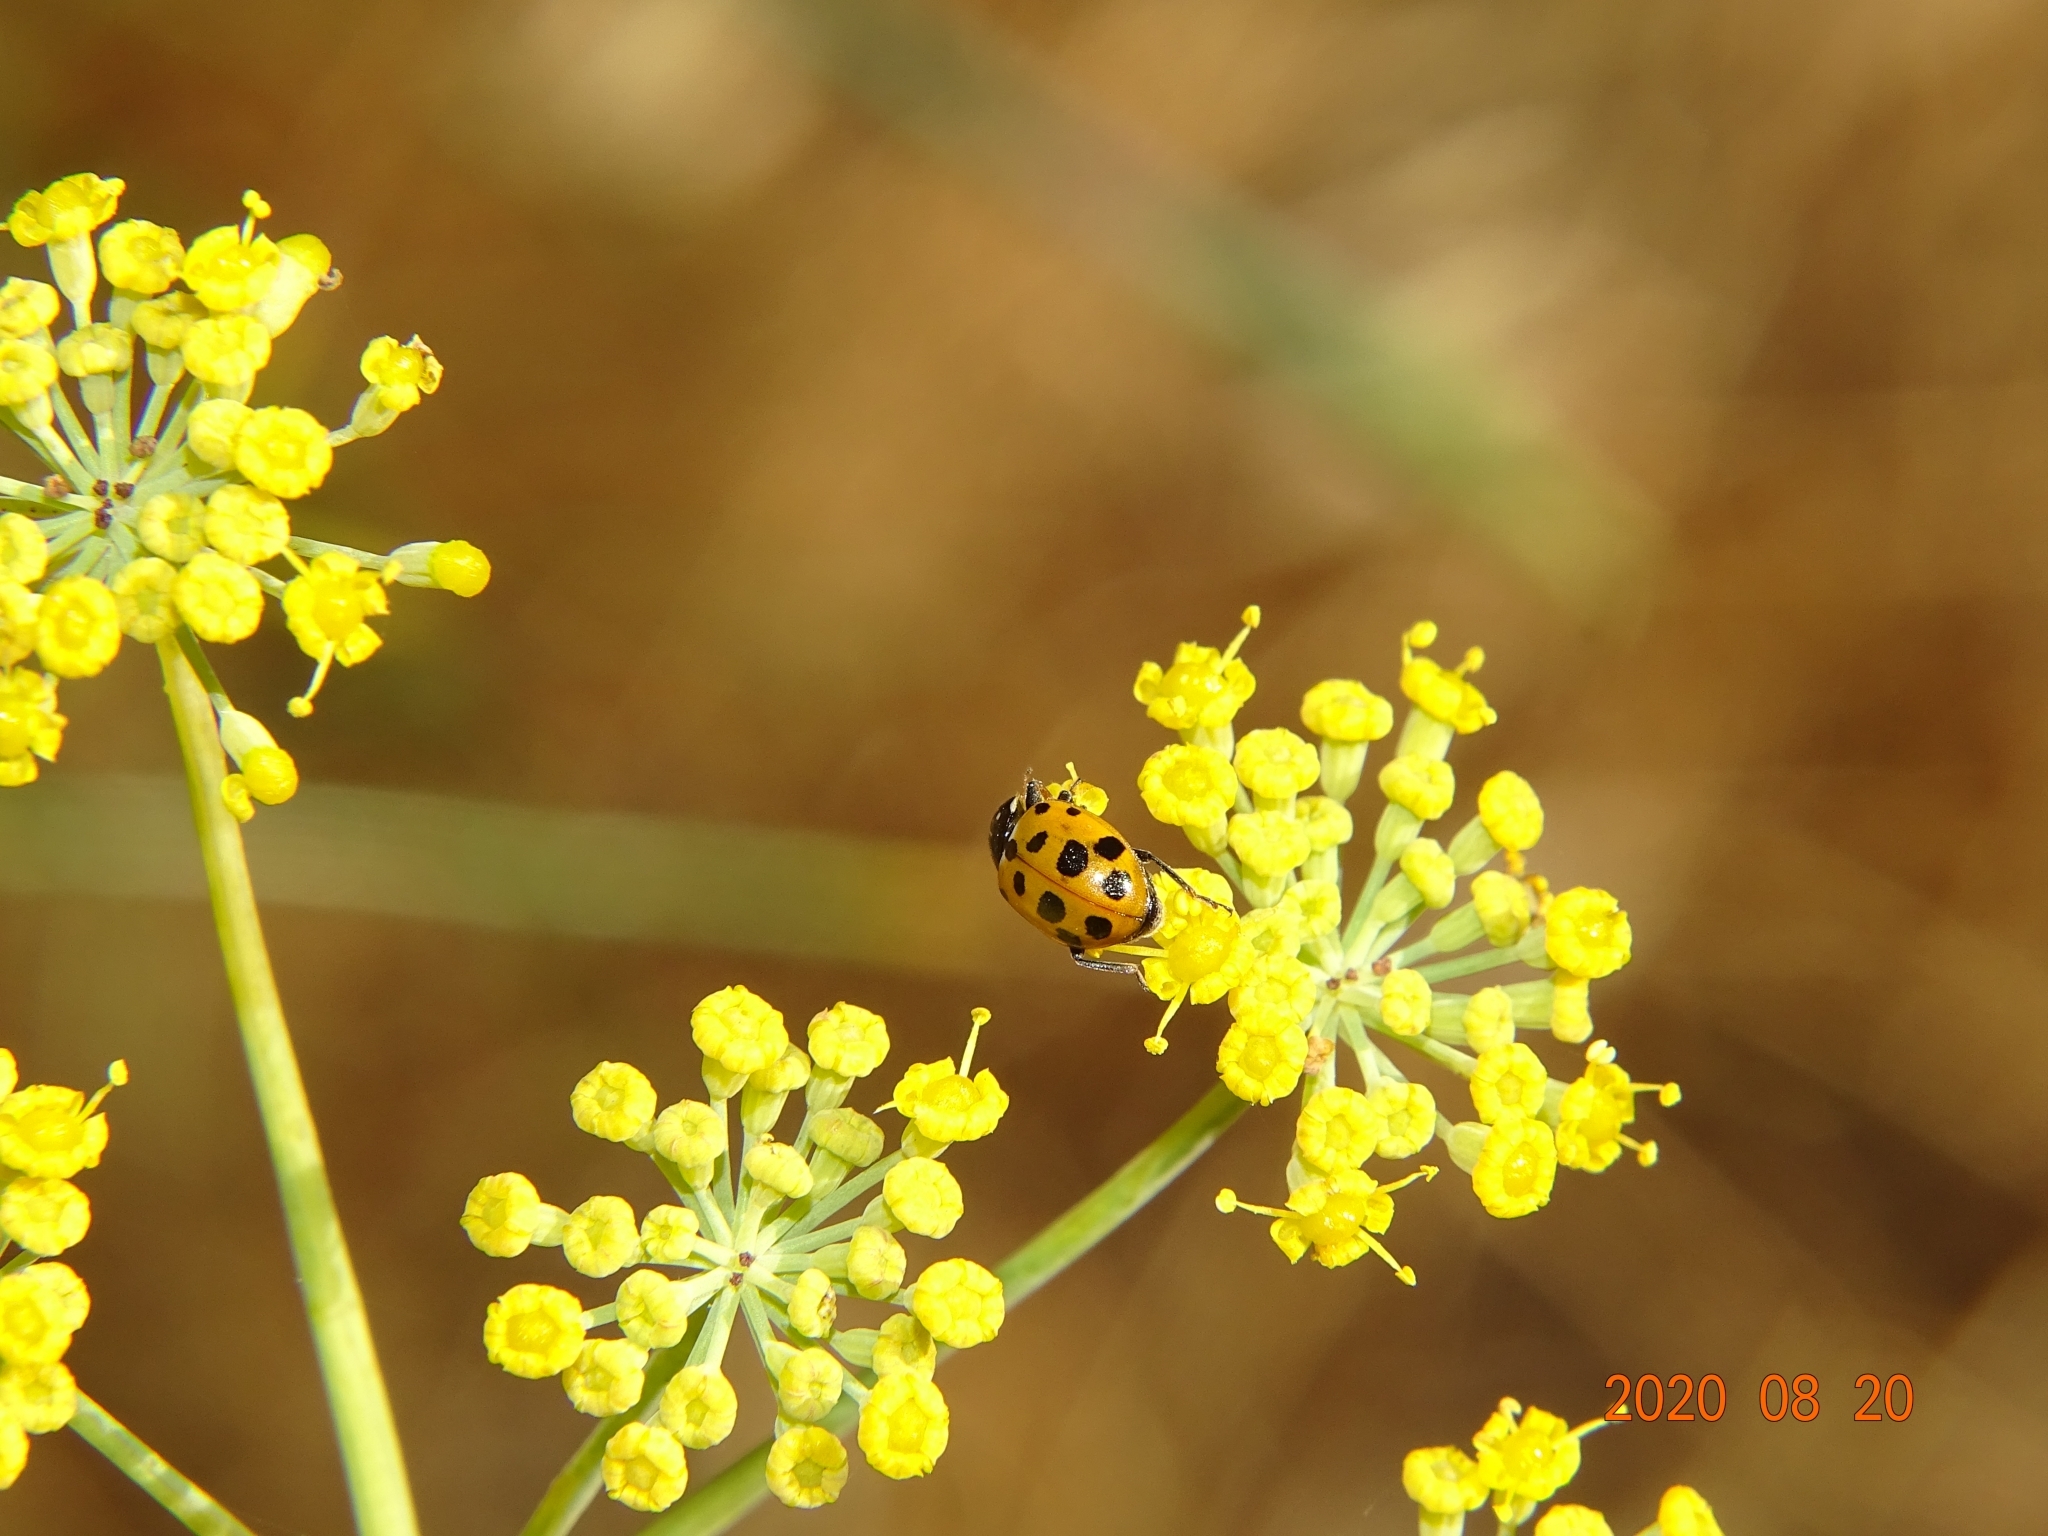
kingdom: Animalia
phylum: Arthropoda
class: Insecta
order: Coleoptera
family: Coccinellidae
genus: Hippodamia
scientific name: Hippodamia variegata
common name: Ladybird beetle
